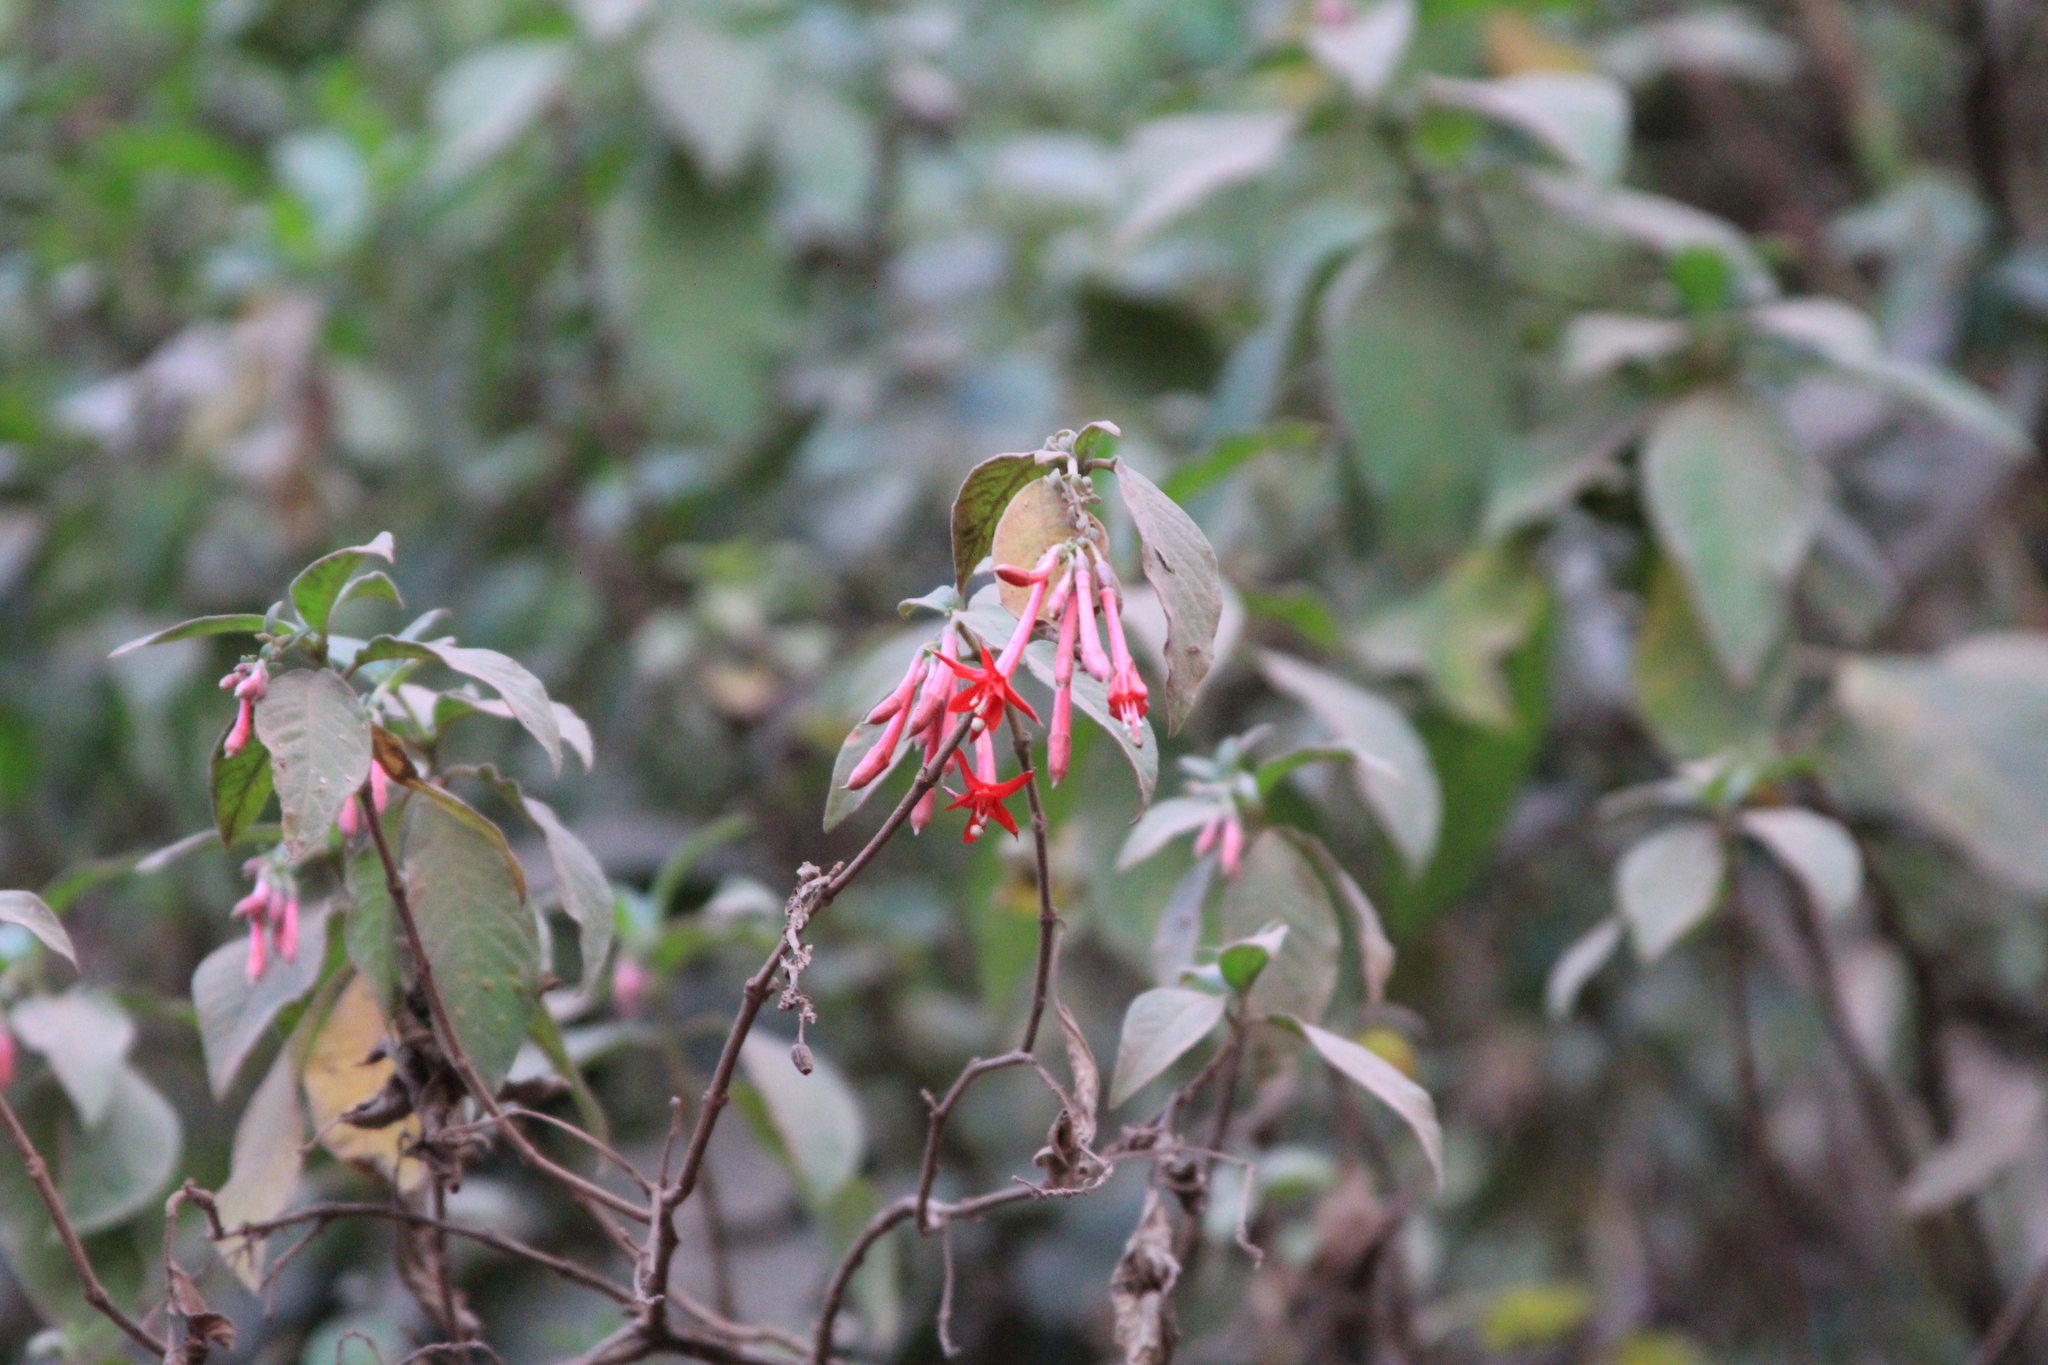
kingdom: Plantae
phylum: Tracheophyta
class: Magnoliopsida
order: Myrtales
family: Onagraceae
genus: Fuchsia
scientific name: Fuchsia boliviana
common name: Bolivian fuchsia
